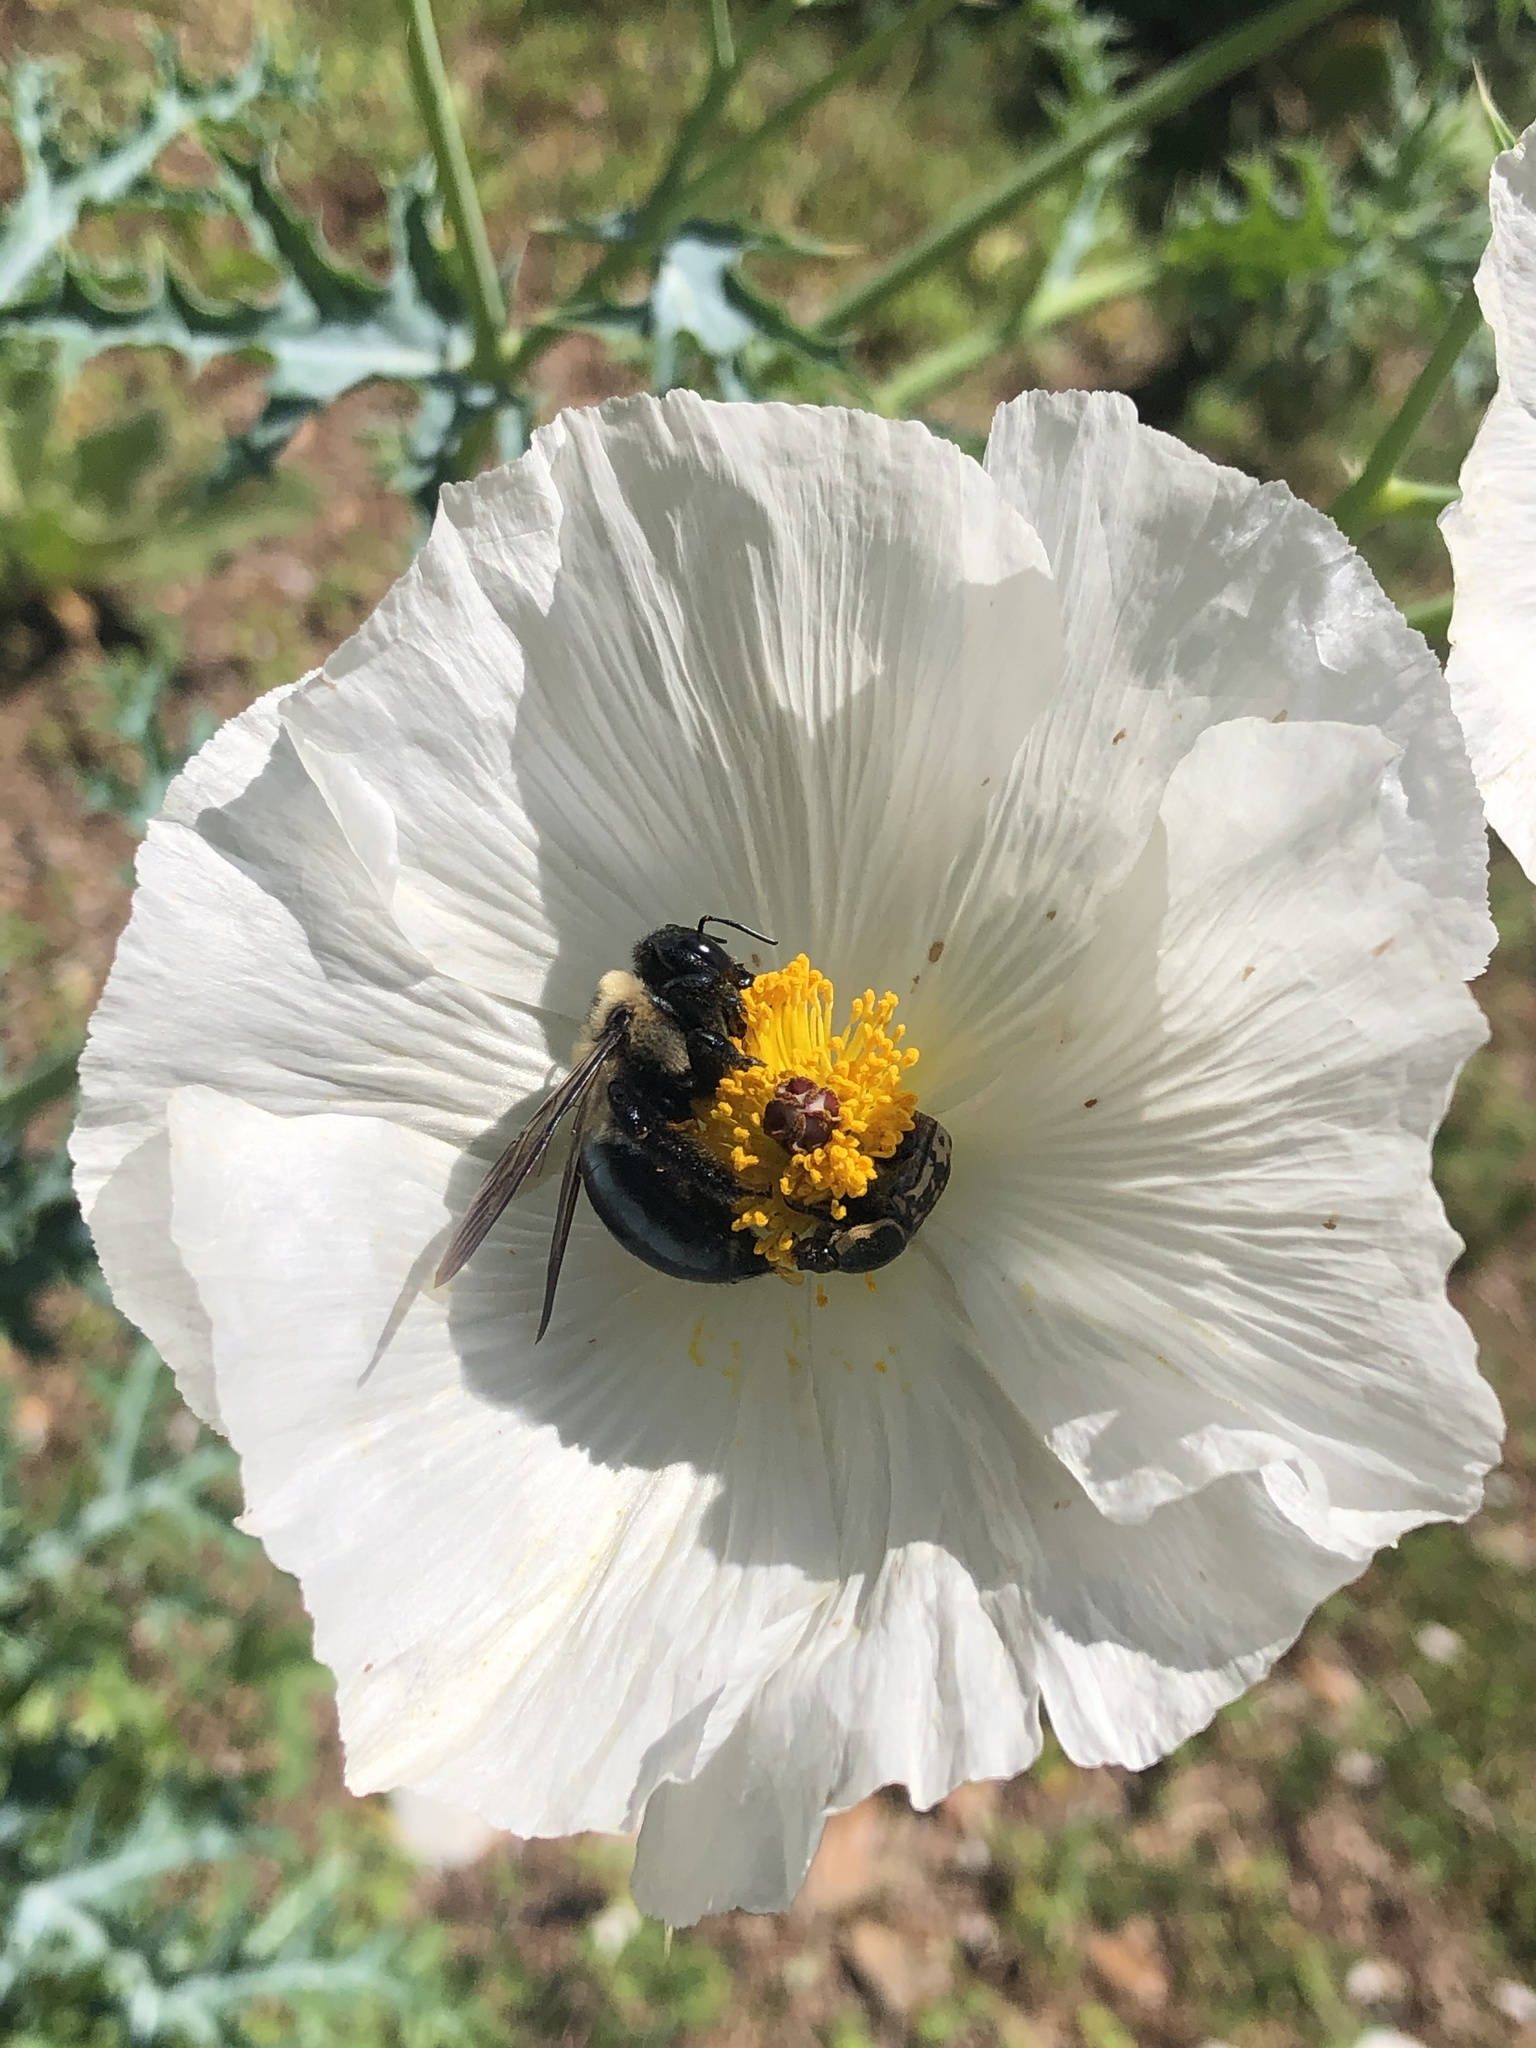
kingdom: Animalia
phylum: Arthropoda
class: Insecta
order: Hymenoptera
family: Apidae
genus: Xylocopa
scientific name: Xylocopa virginica
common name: Carpenter bee
